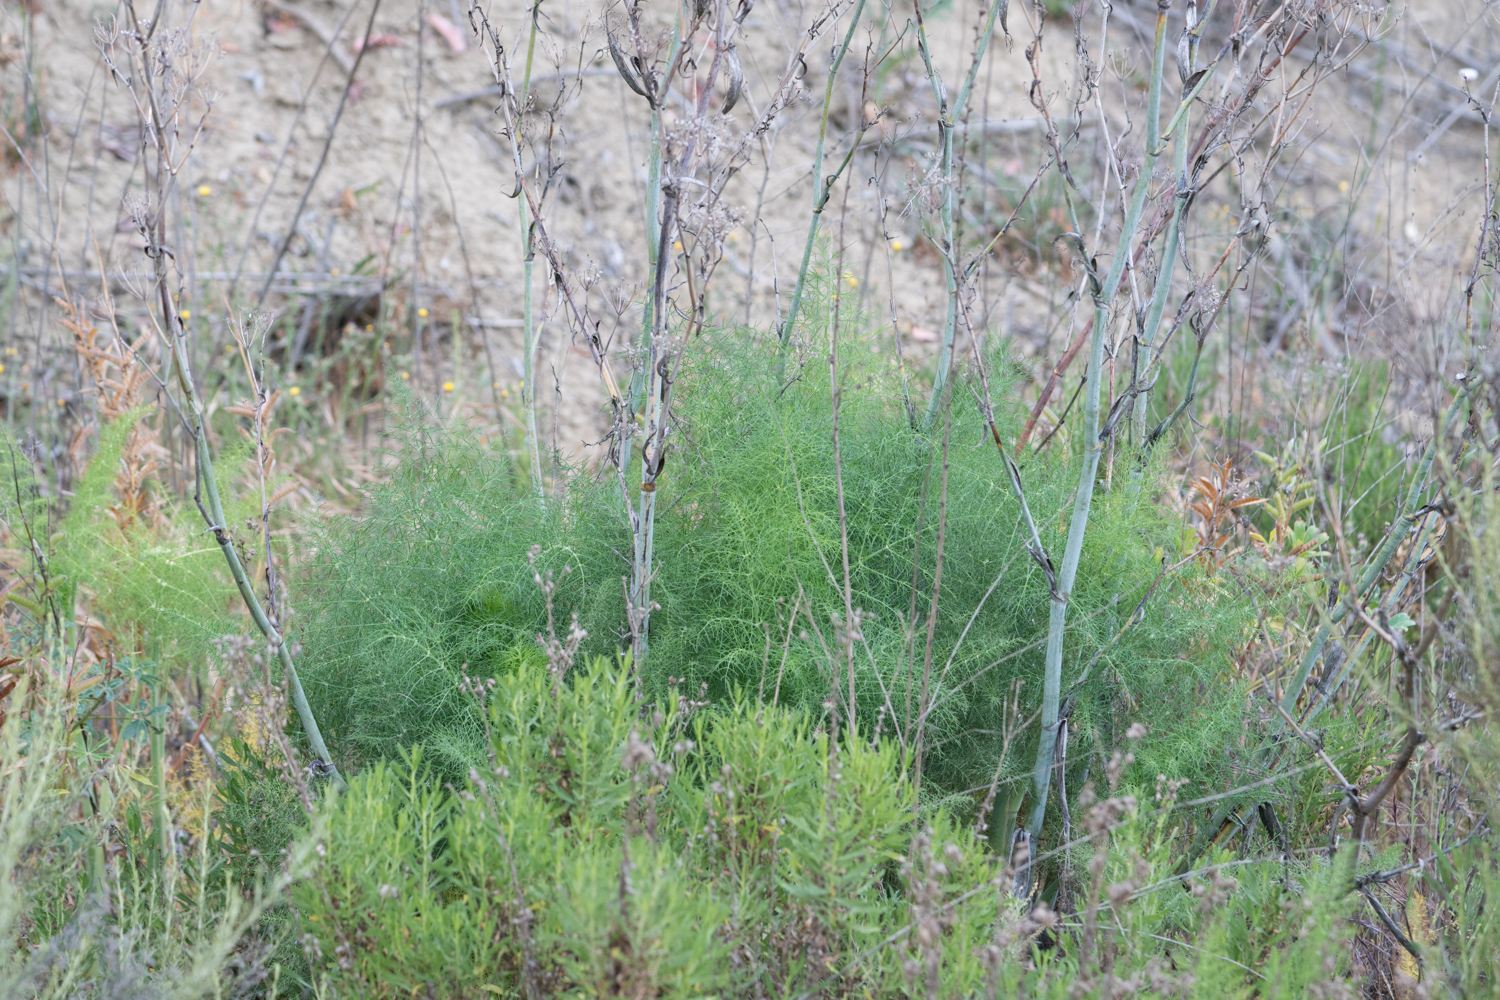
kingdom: Plantae
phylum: Tracheophyta
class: Magnoliopsida
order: Apiales
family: Apiaceae
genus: Foeniculum
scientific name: Foeniculum vulgare
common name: Fennel
